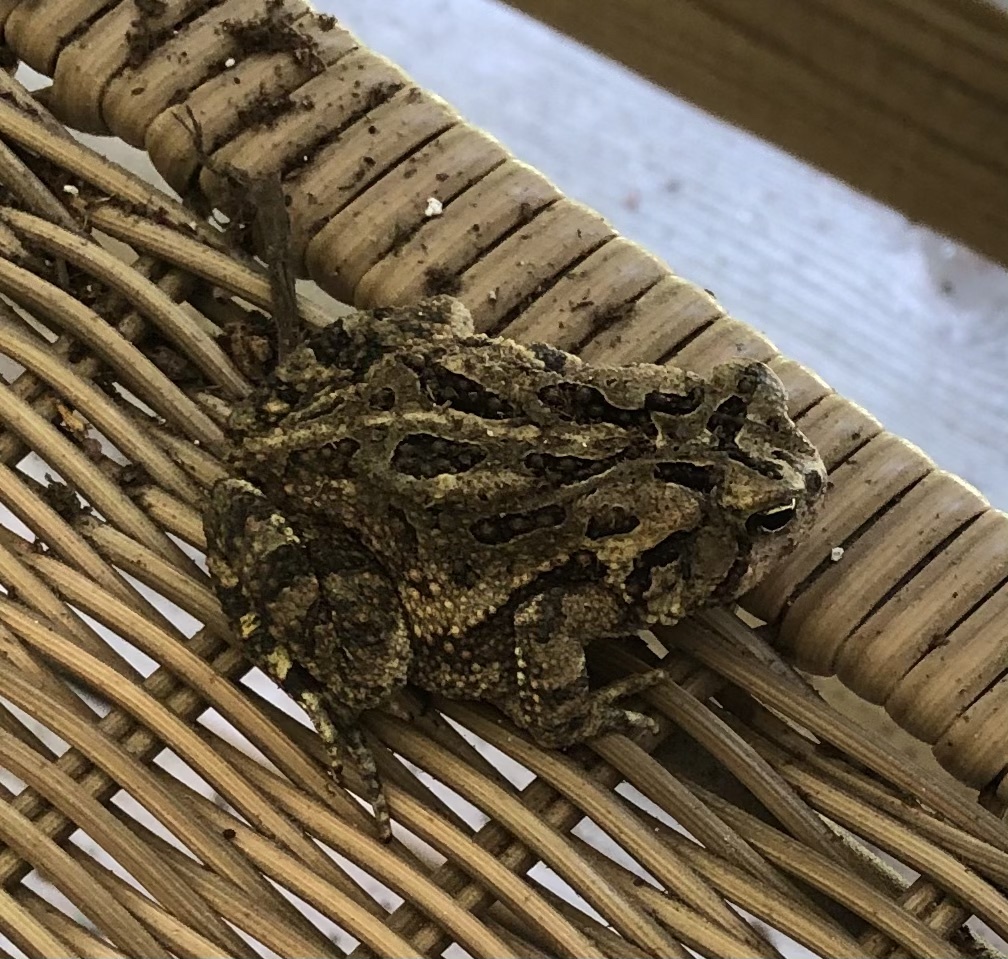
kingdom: Animalia
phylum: Chordata
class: Amphibia
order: Anura
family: Bufonidae
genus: Anaxyrus
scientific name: Anaxyrus fowleri
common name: Fowler's toad
